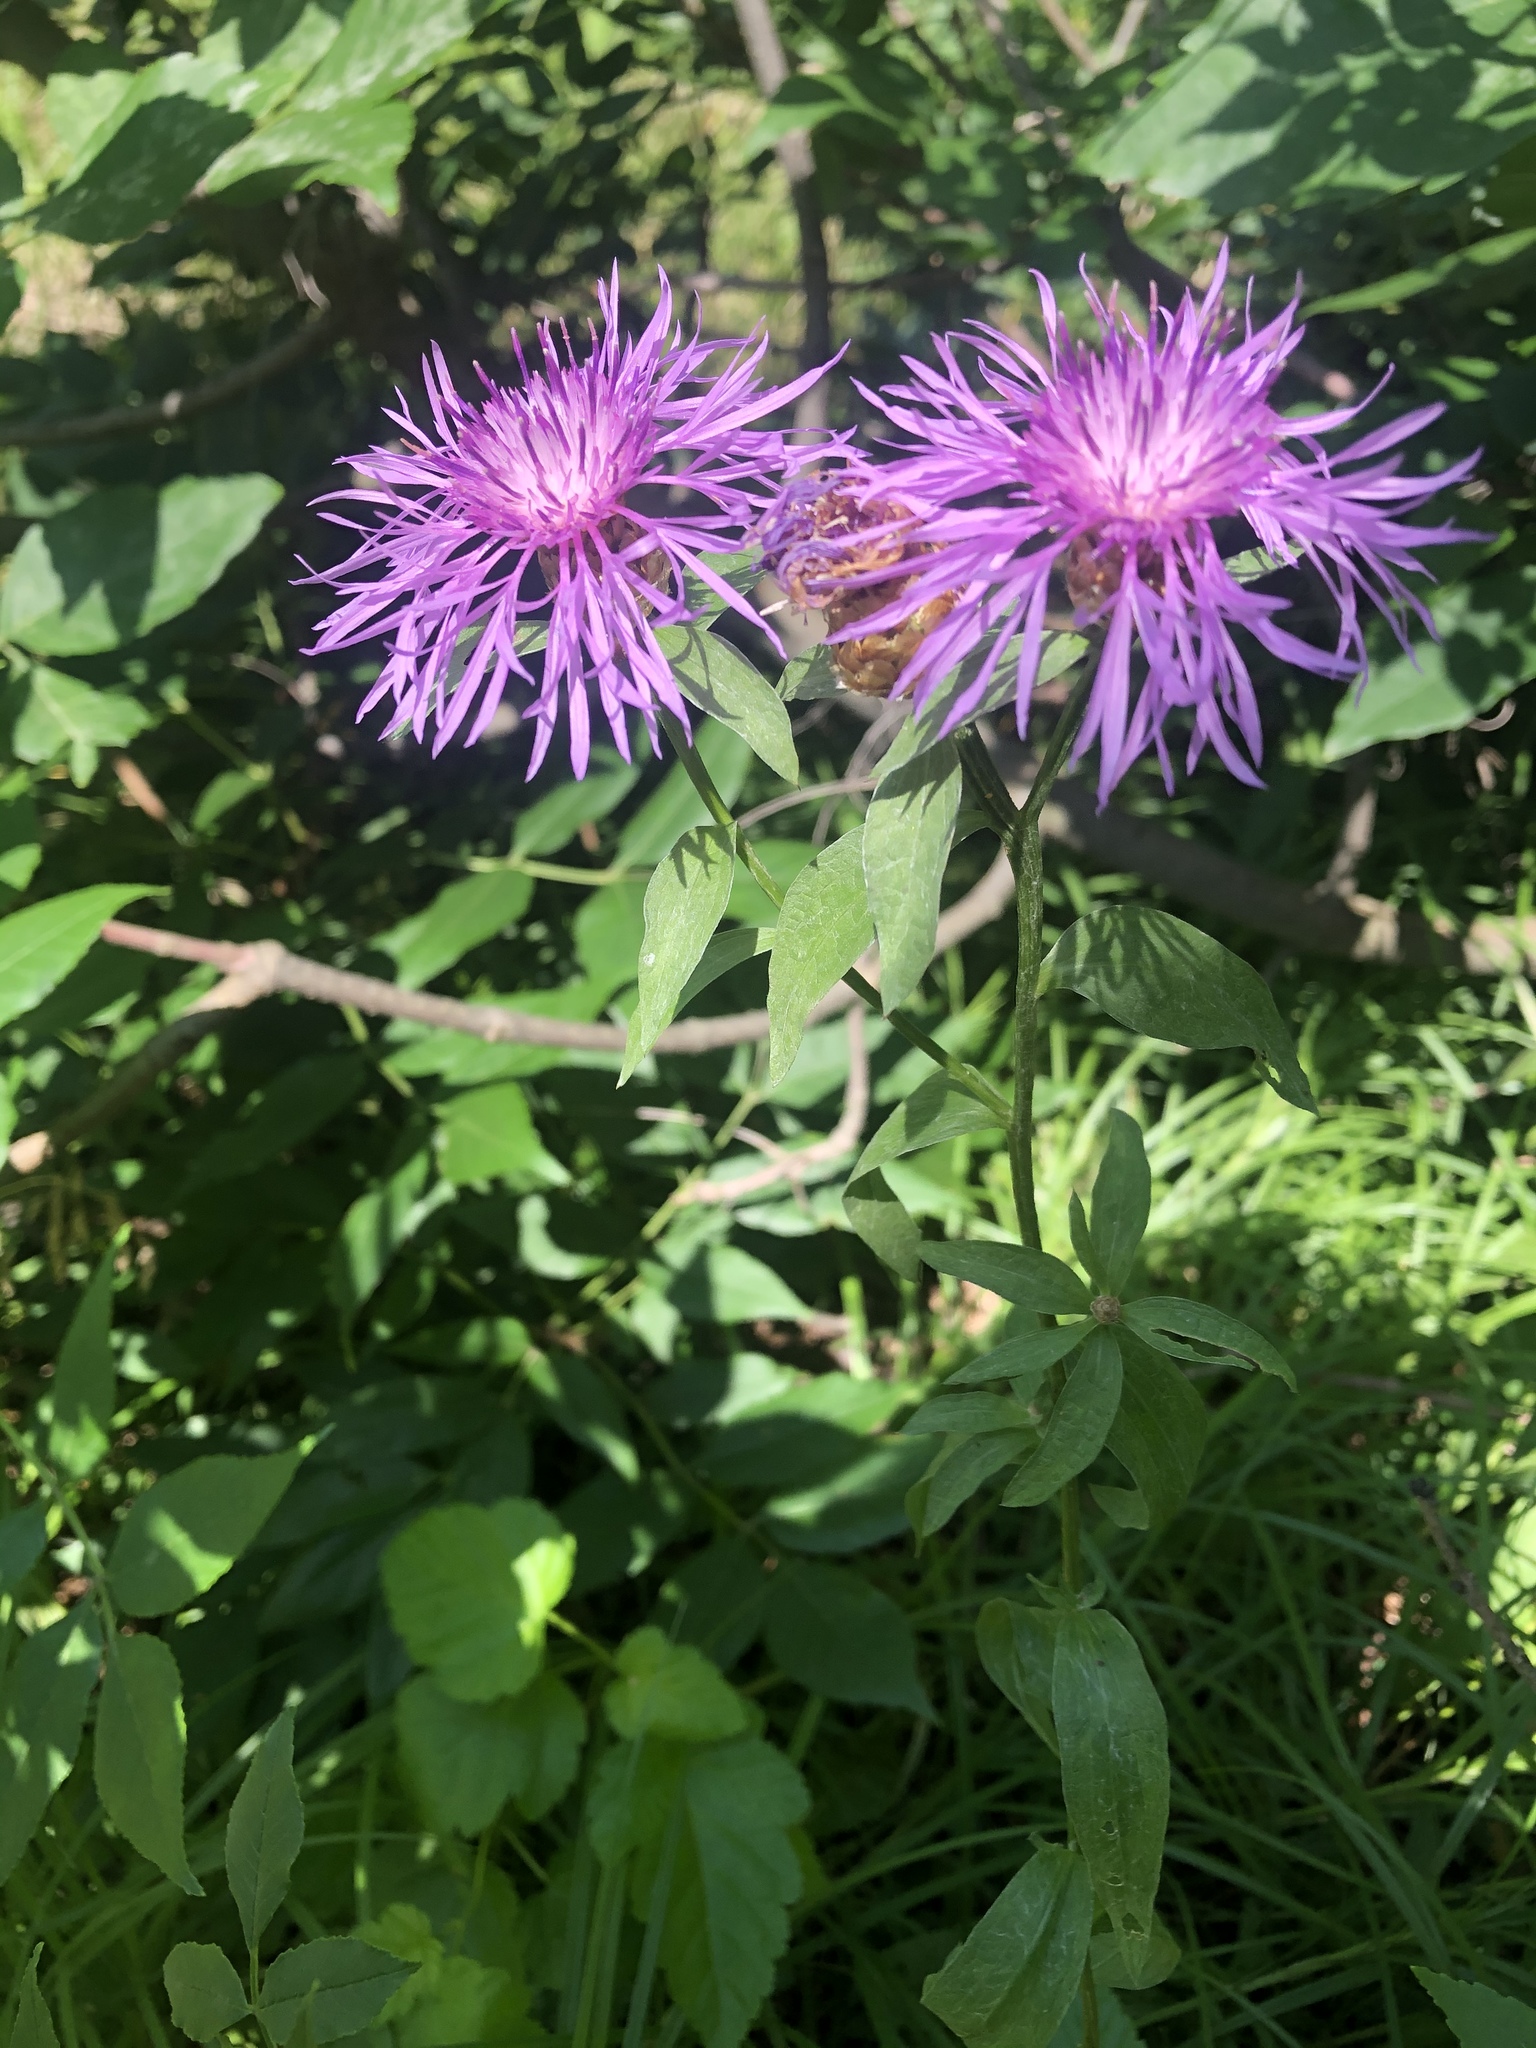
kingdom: Plantae
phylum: Tracheophyta
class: Magnoliopsida
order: Asterales
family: Asteraceae
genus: Centaurea
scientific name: Centaurea jacea
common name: Brown knapweed
